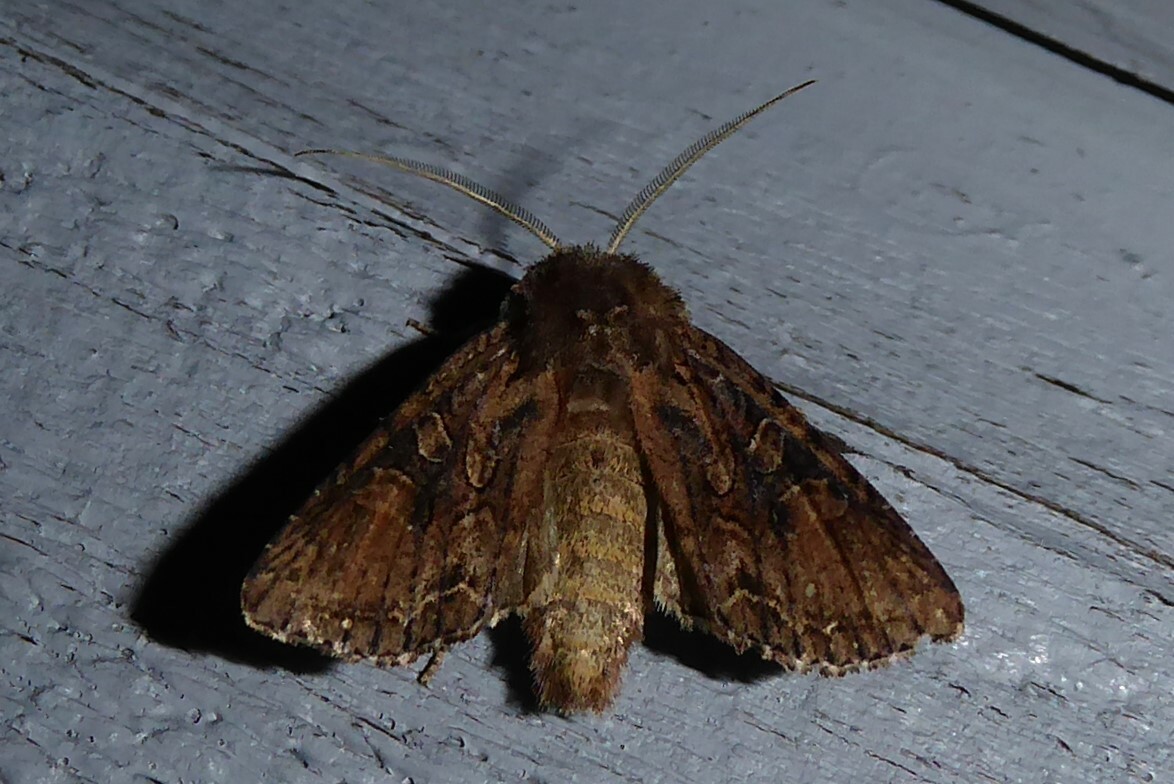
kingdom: Animalia
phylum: Arthropoda
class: Insecta
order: Lepidoptera
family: Noctuidae
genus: Ichneutica
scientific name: Ichneutica mutans
